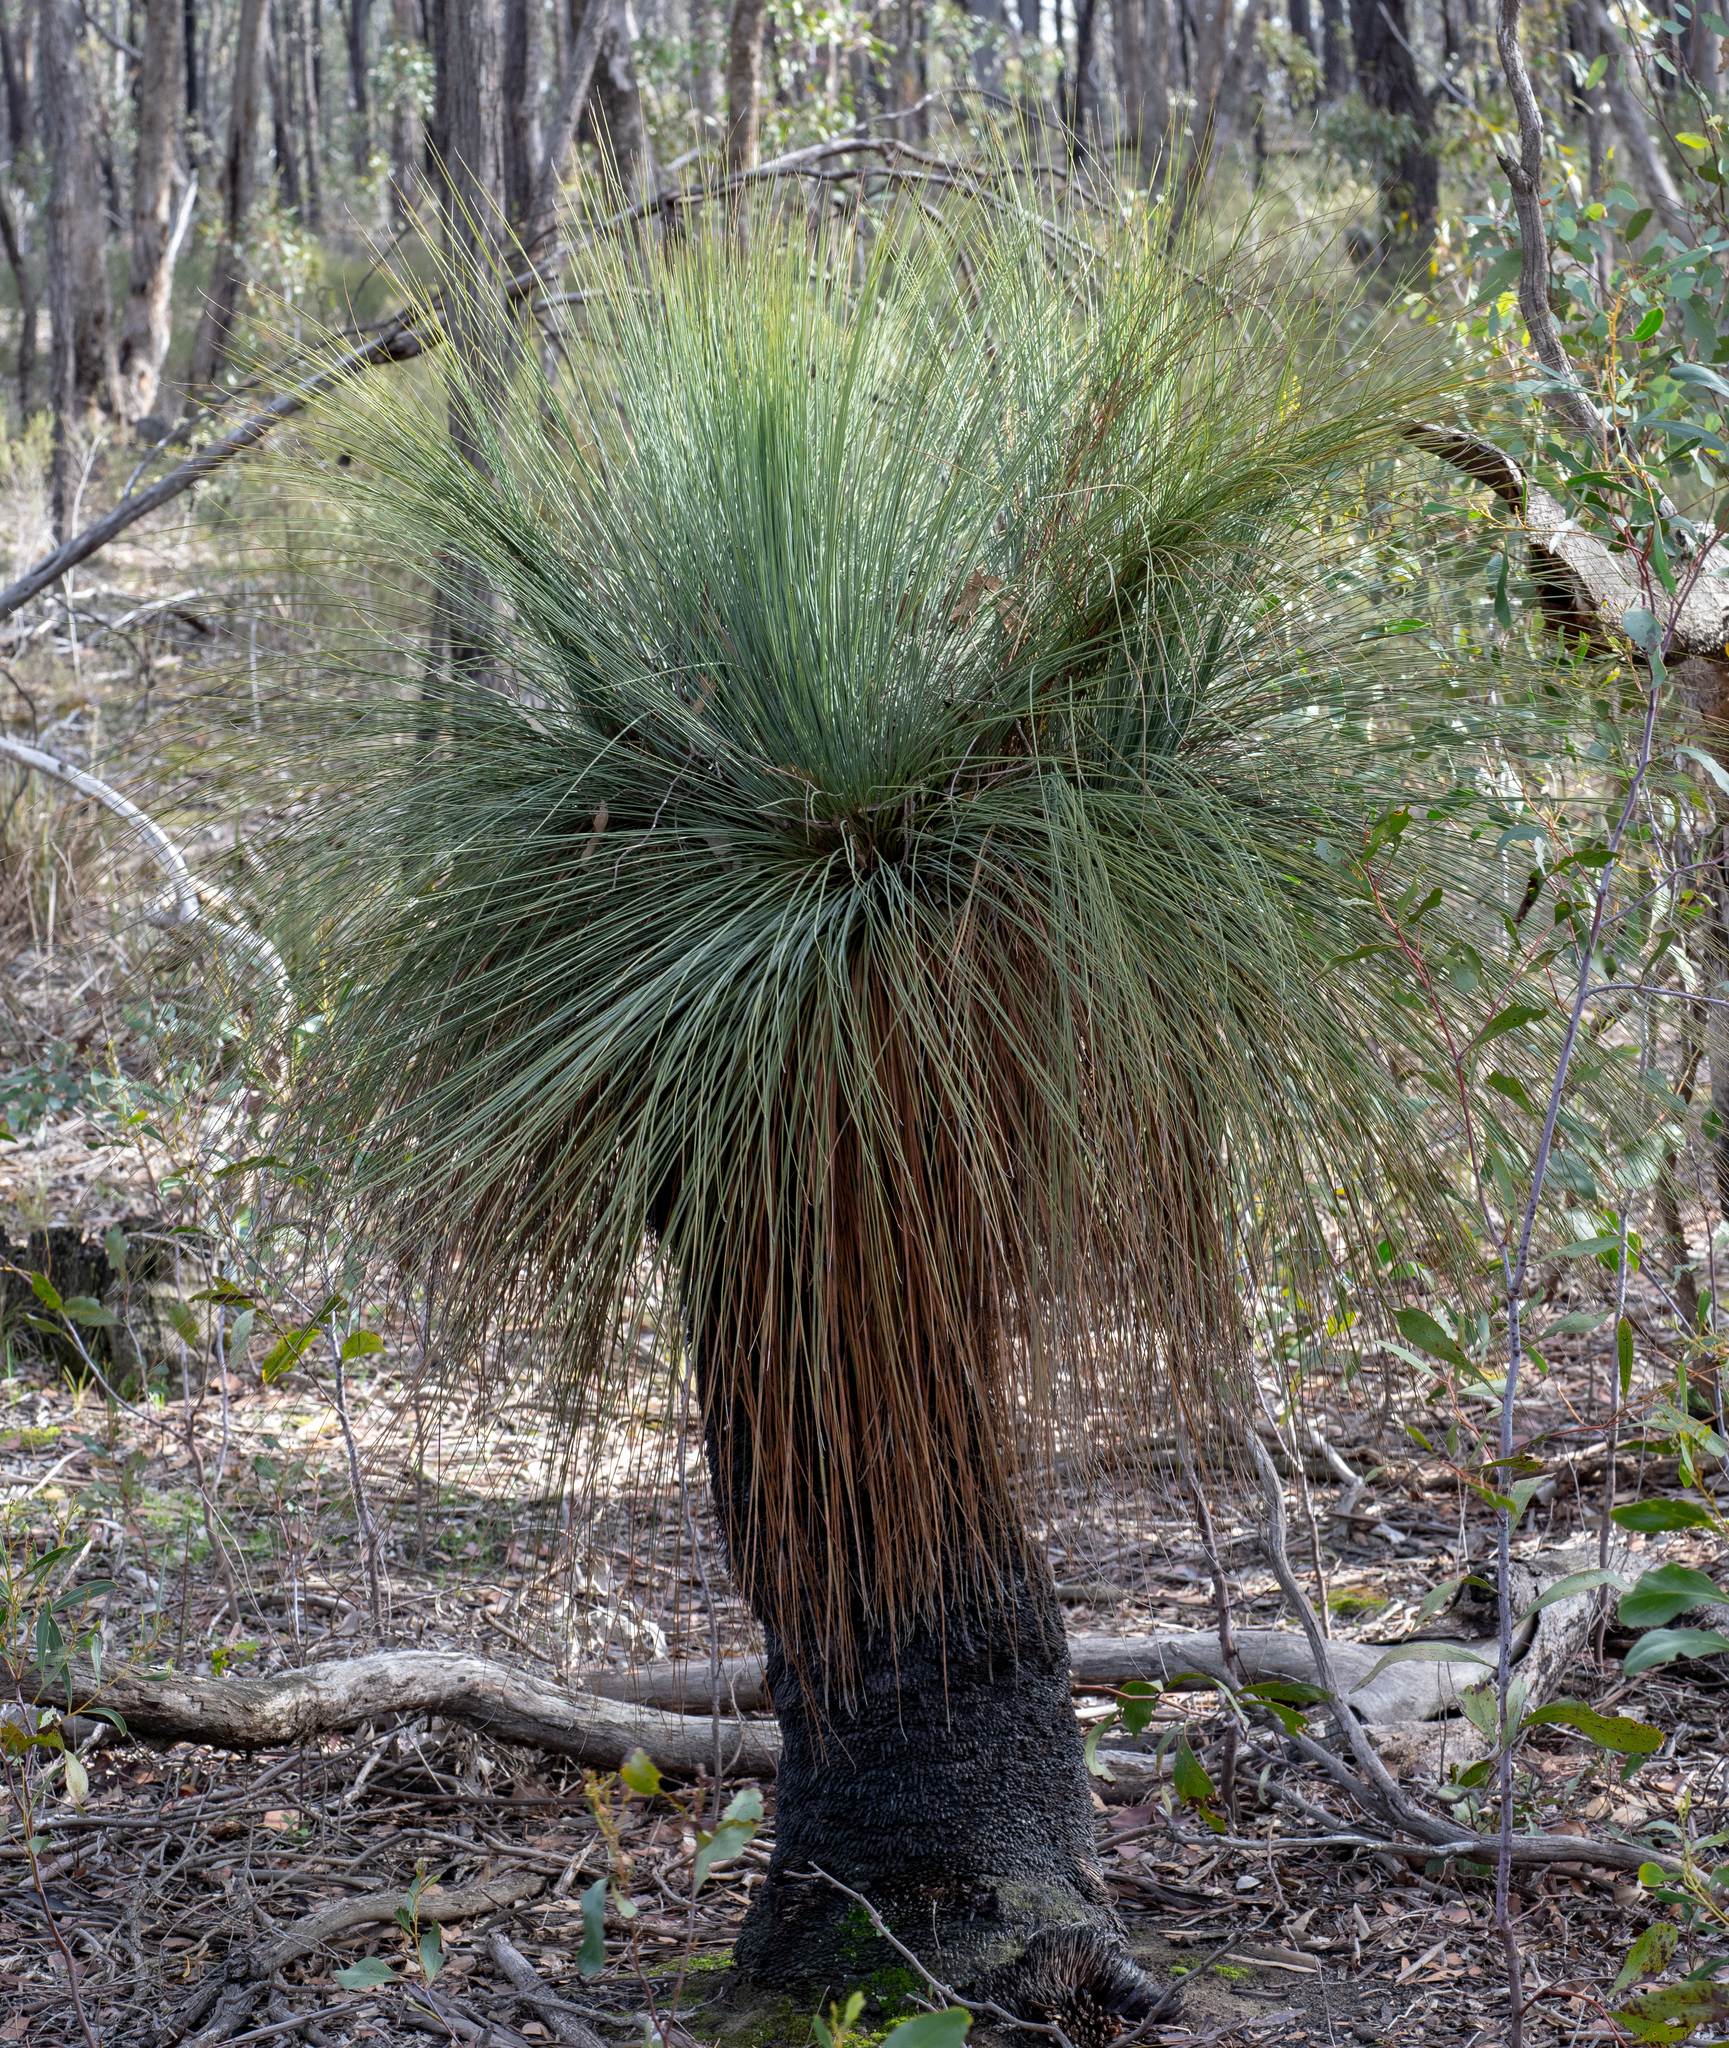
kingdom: Plantae
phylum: Tracheophyta
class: Liliopsida
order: Asparagales
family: Asphodelaceae
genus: Xanthorrhoea
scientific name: Xanthorrhoea glauca
